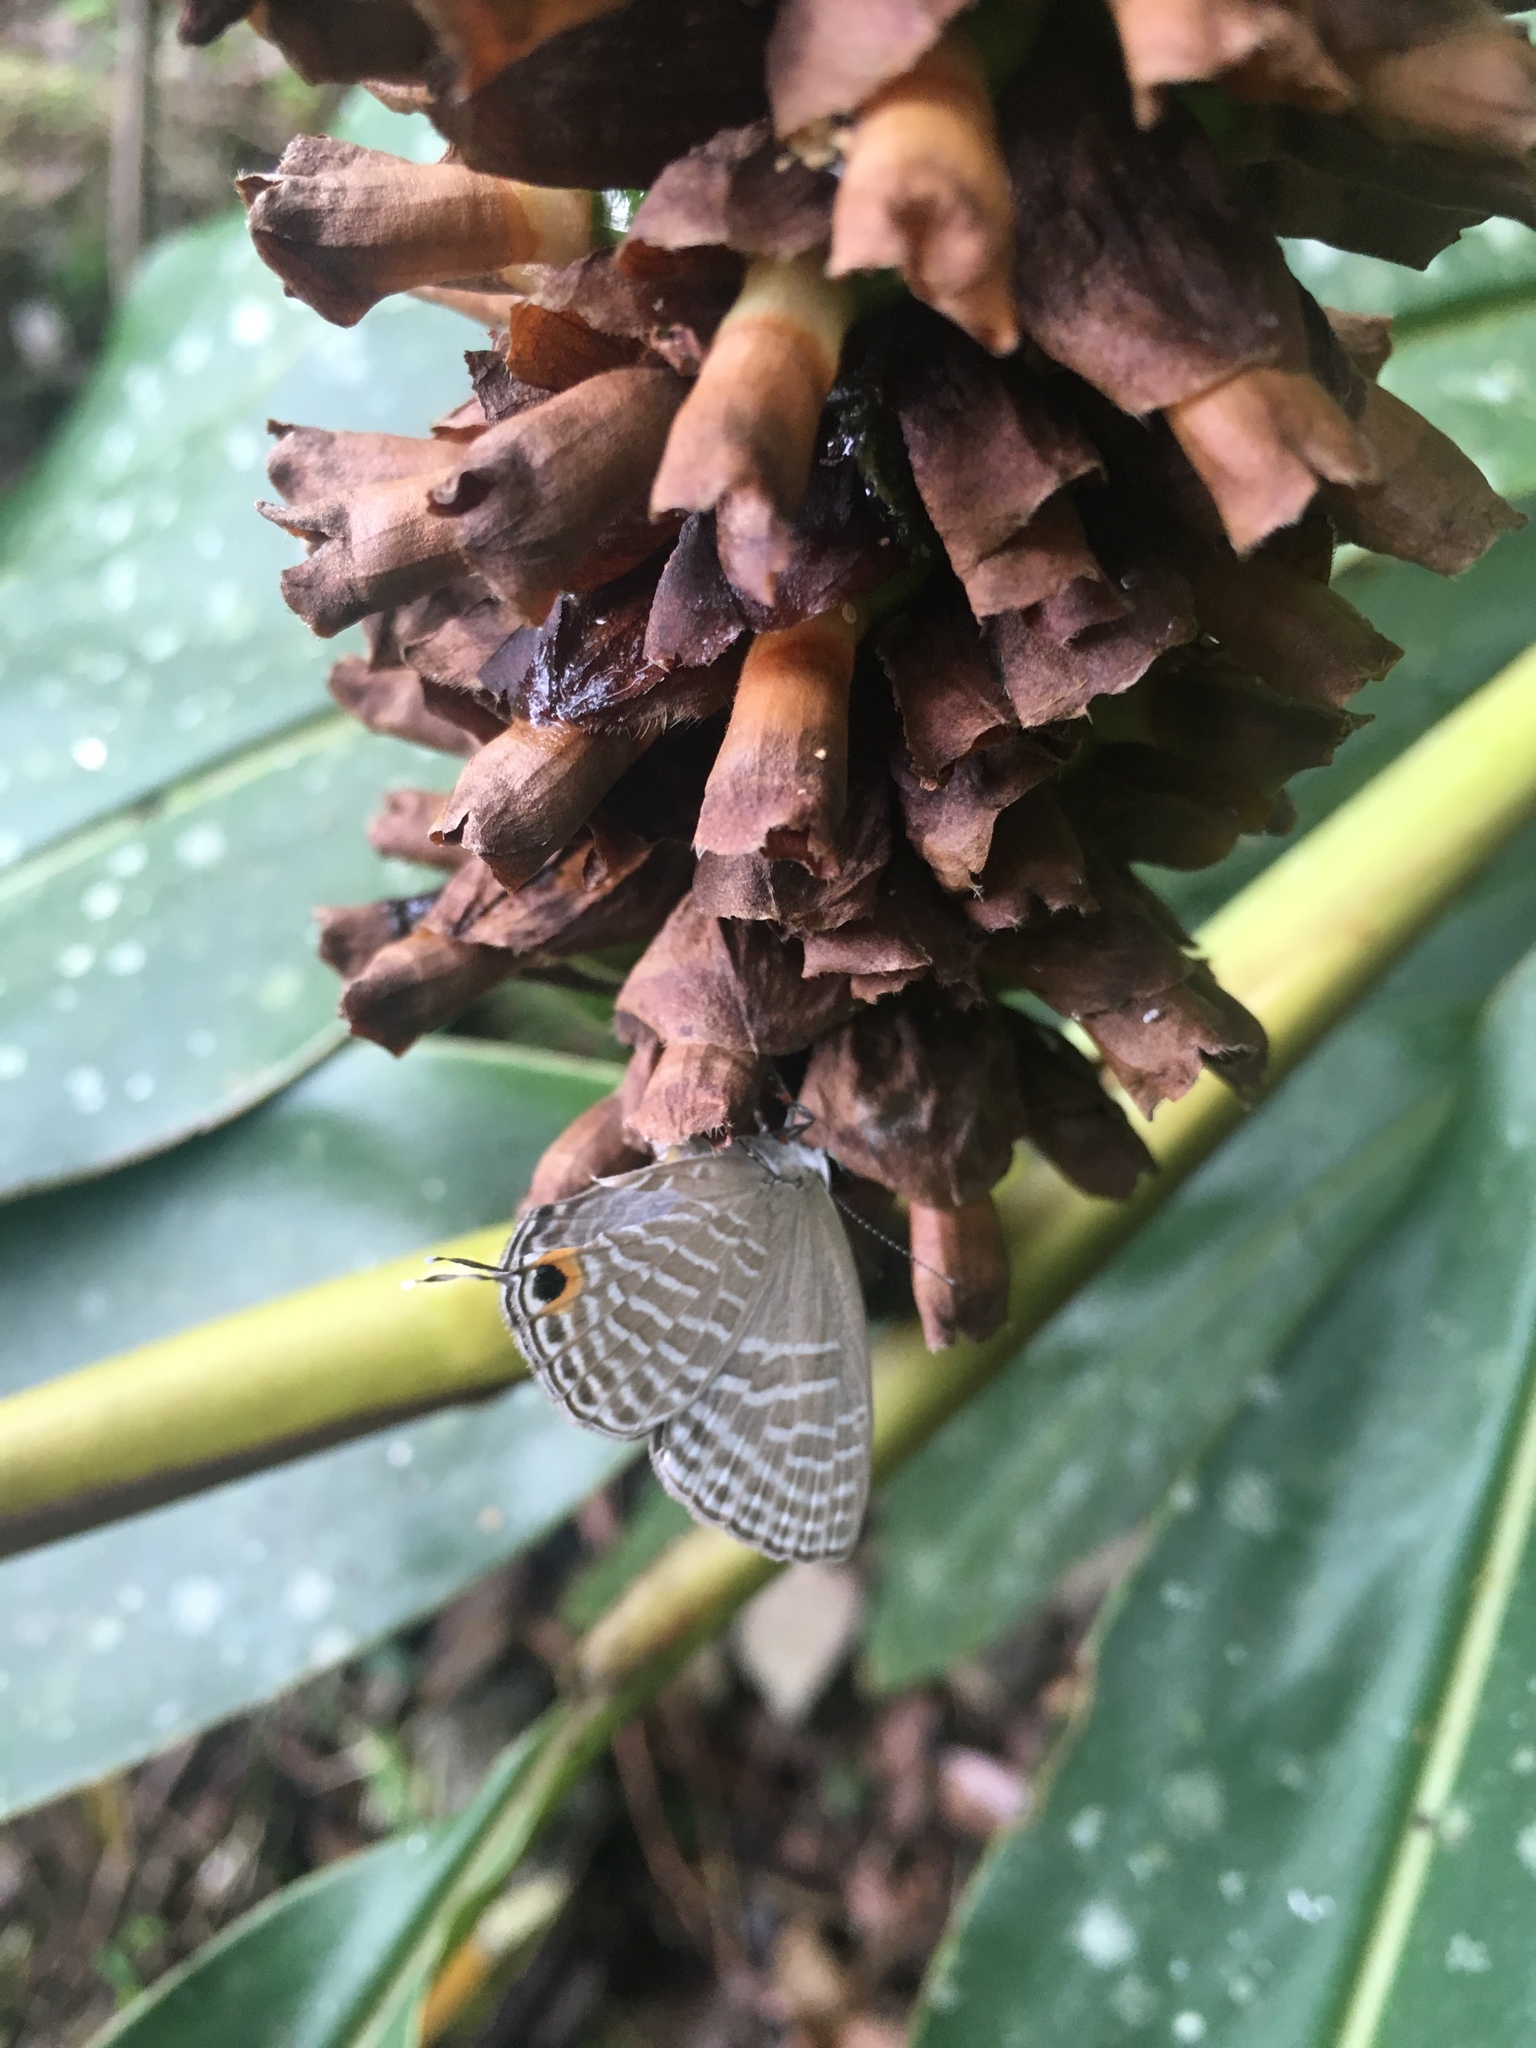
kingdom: Animalia
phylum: Arthropoda
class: Insecta
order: Lepidoptera
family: Lycaenidae
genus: Jamides
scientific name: Jamides alecto
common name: Metallic cerulean
